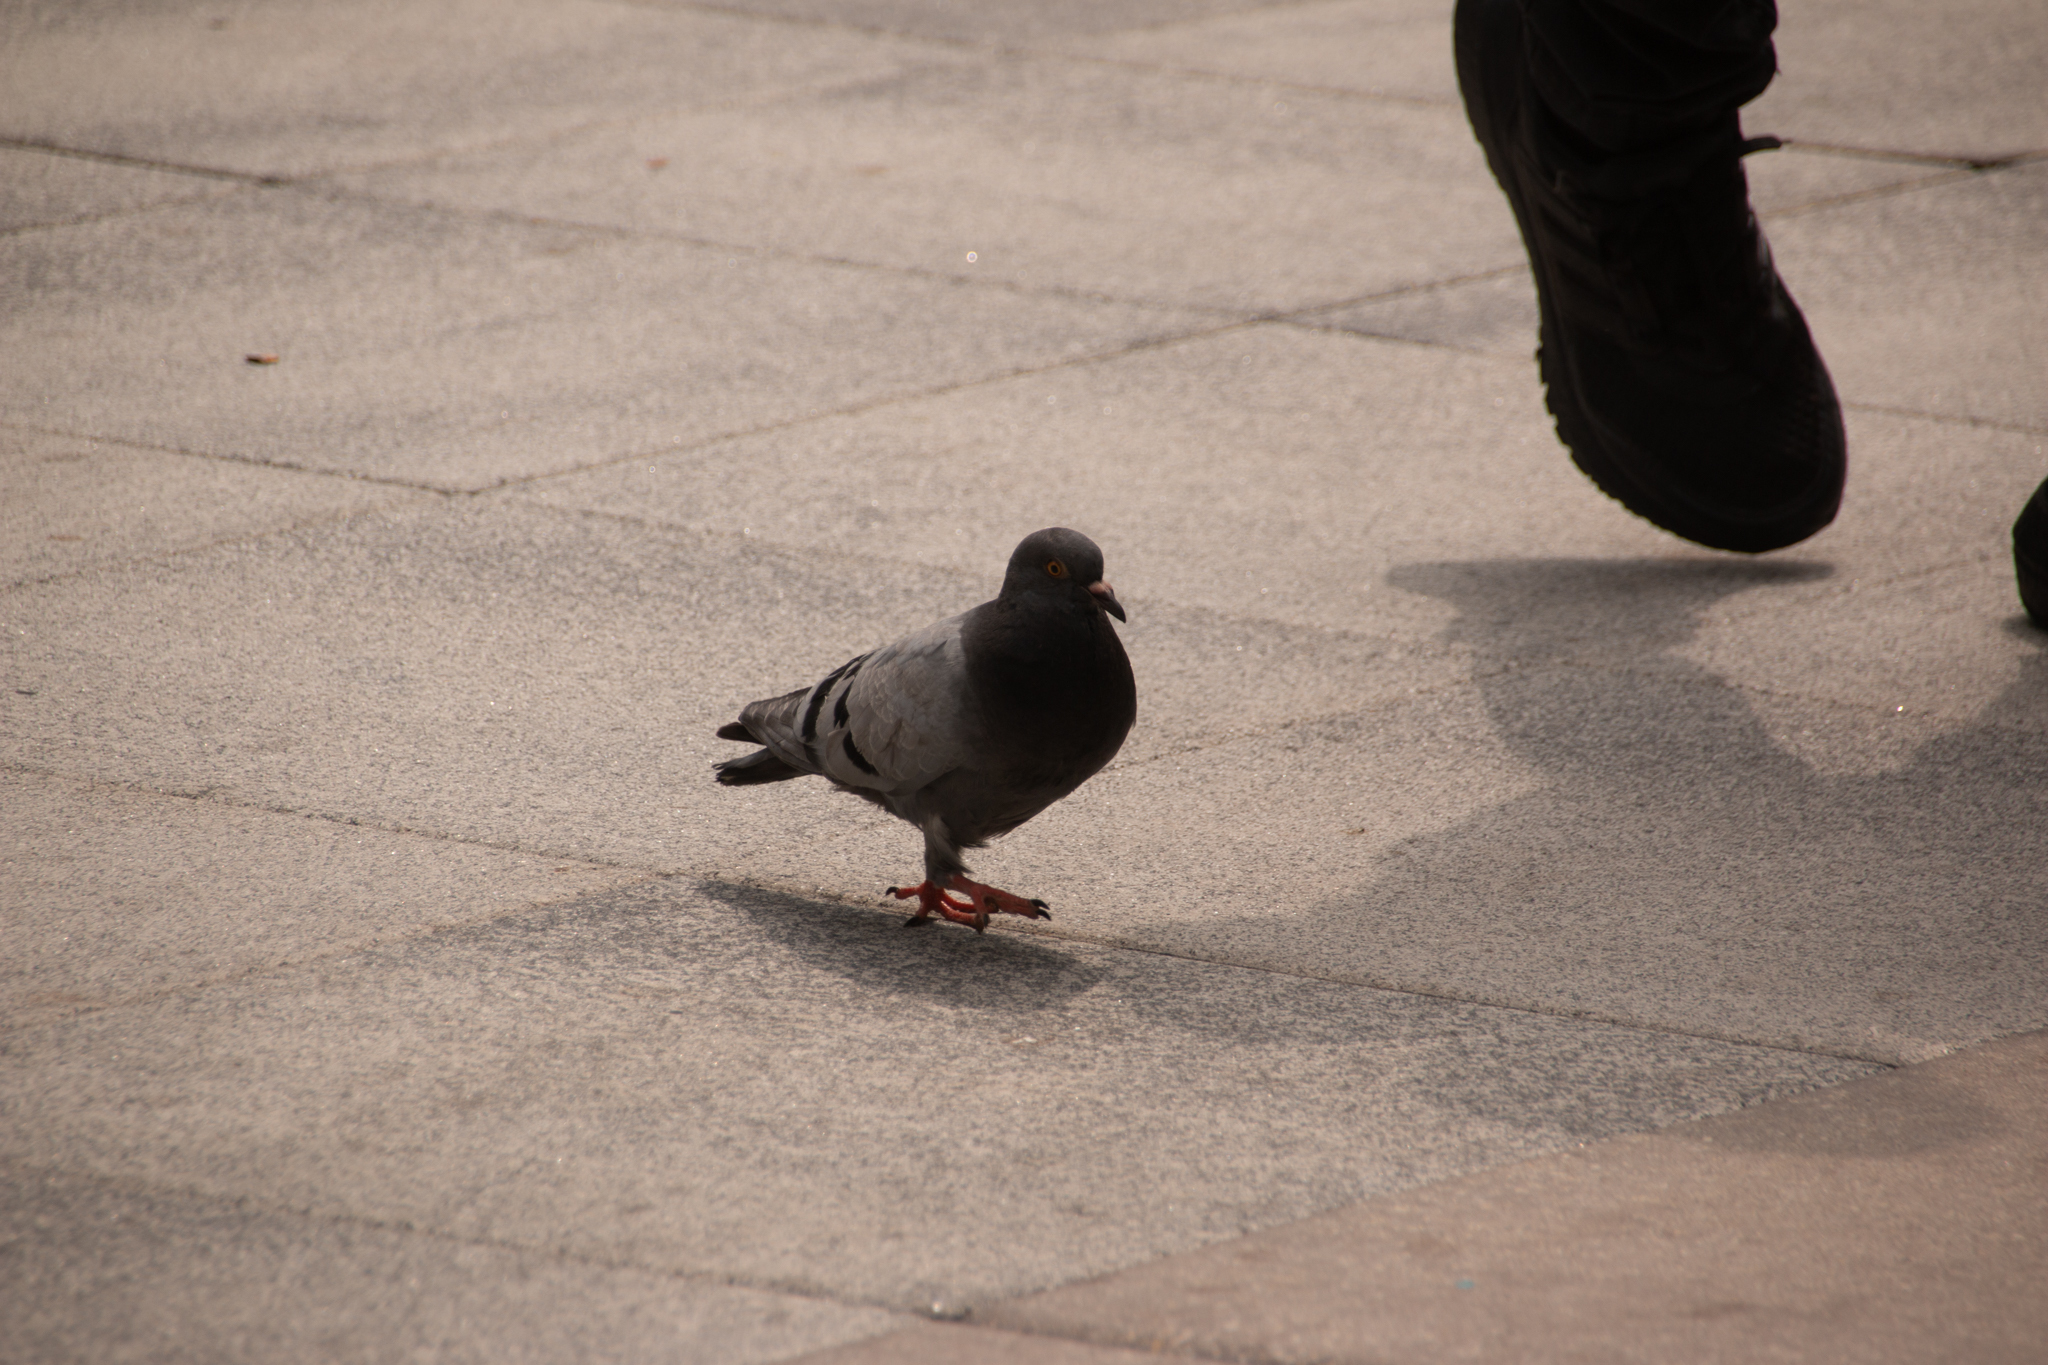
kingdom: Animalia
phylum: Chordata
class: Aves
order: Columbiformes
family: Columbidae
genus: Columba
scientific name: Columba livia
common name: Rock pigeon
